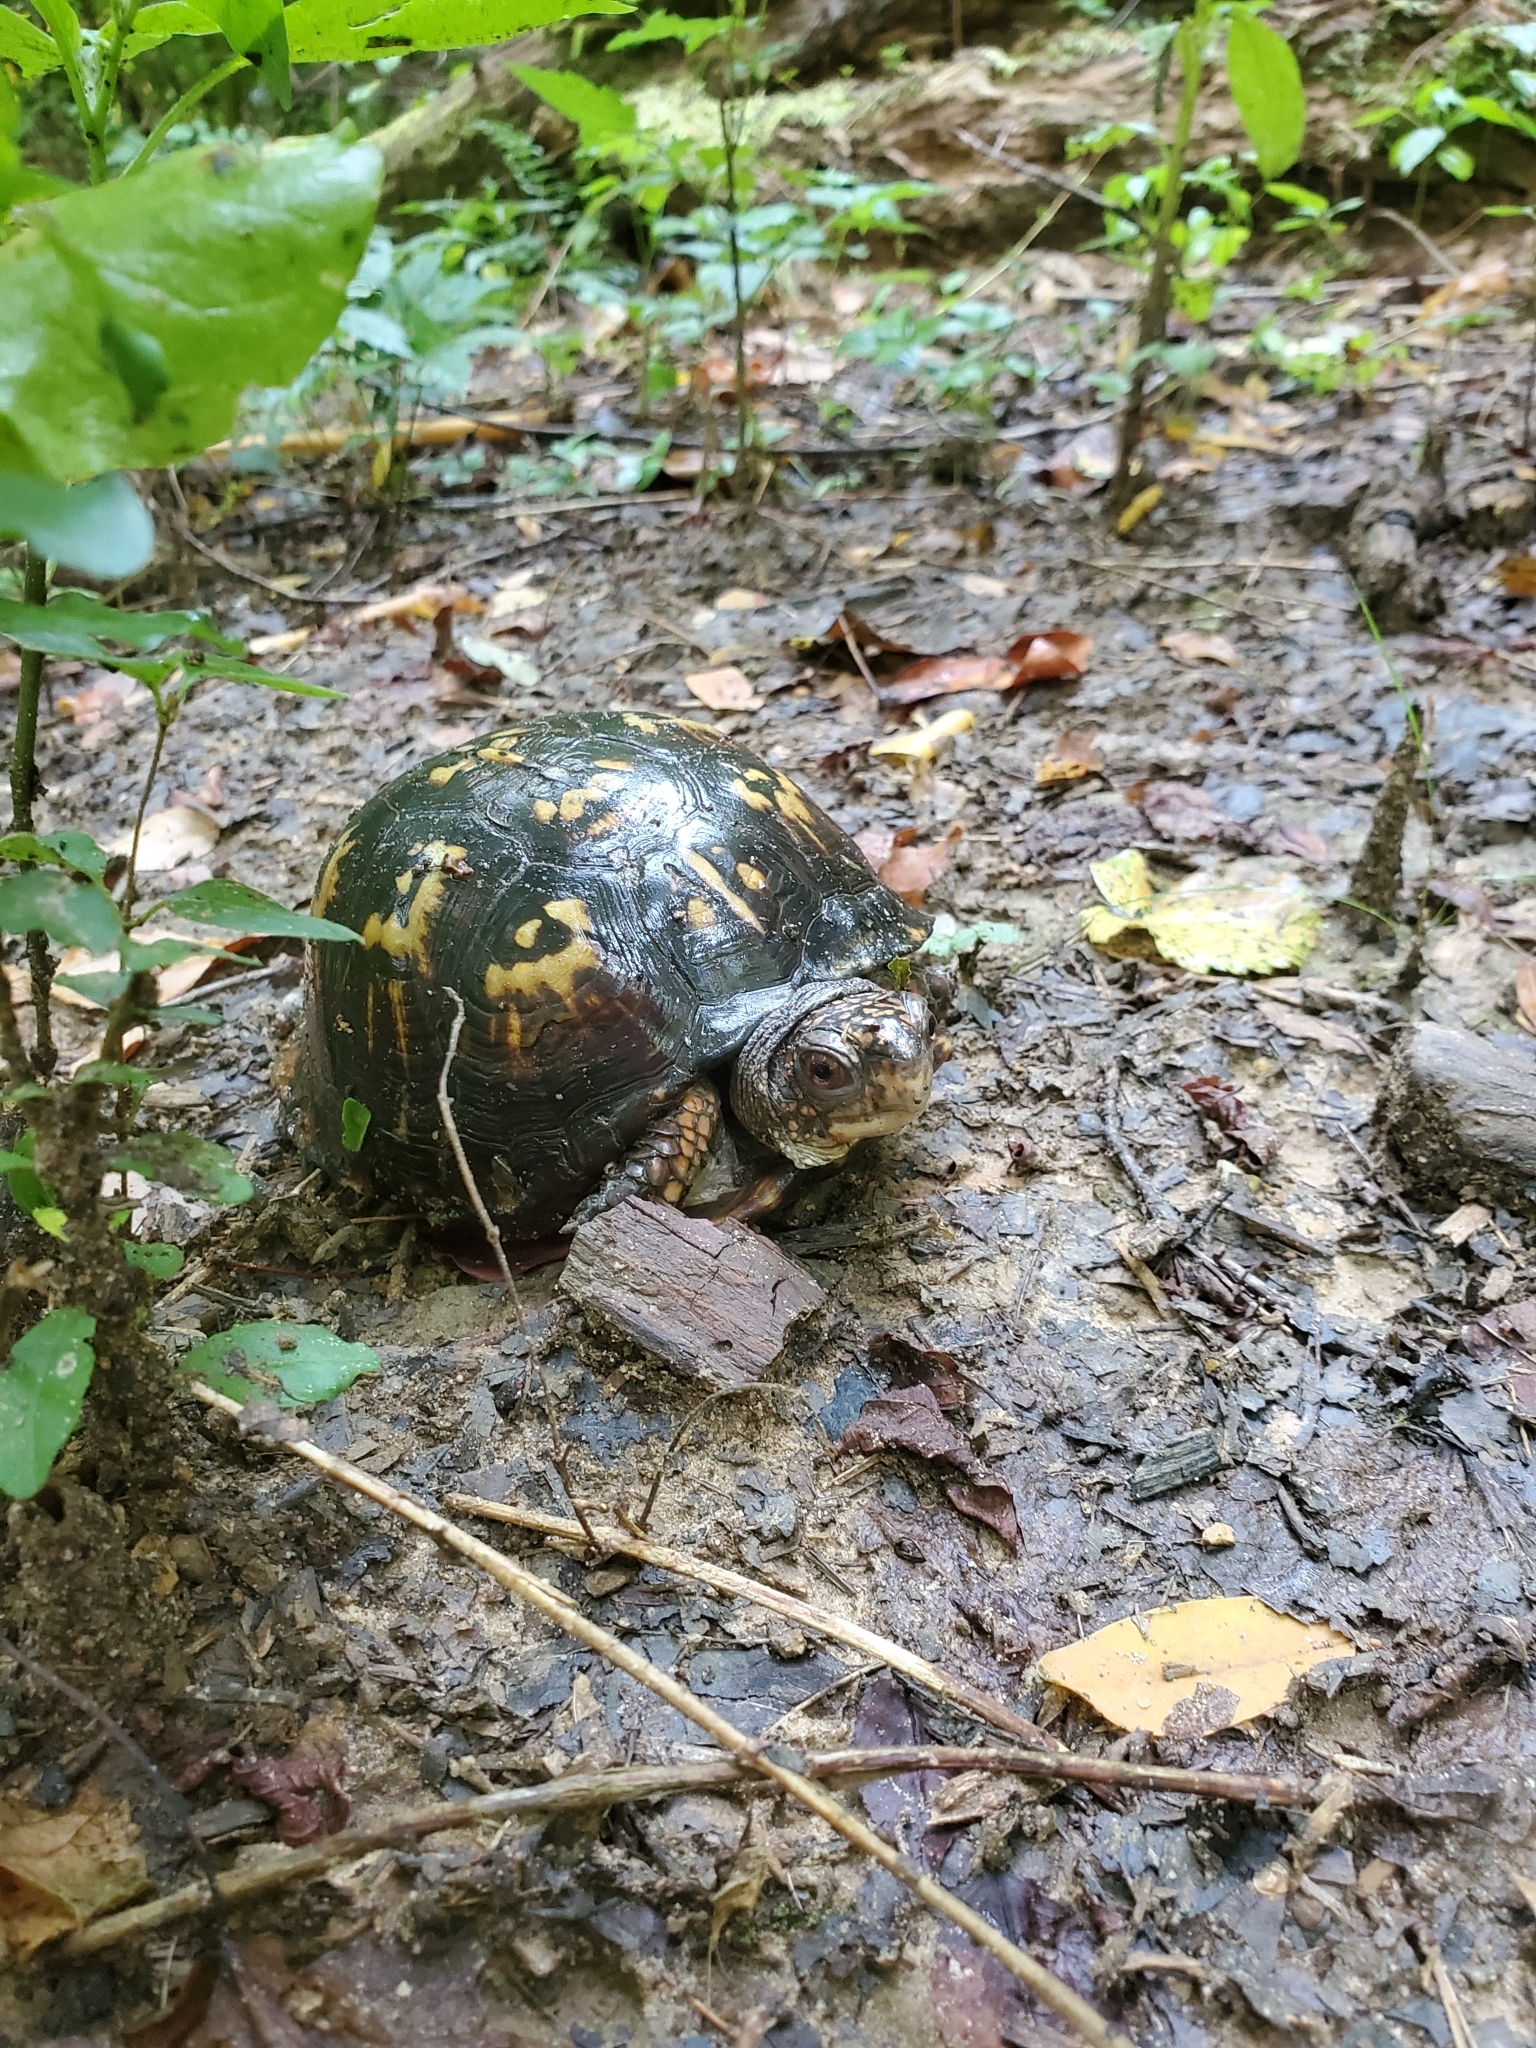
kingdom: Animalia
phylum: Chordata
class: Testudines
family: Emydidae
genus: Terrapene
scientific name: Terrapene carolina
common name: Common box turtle
